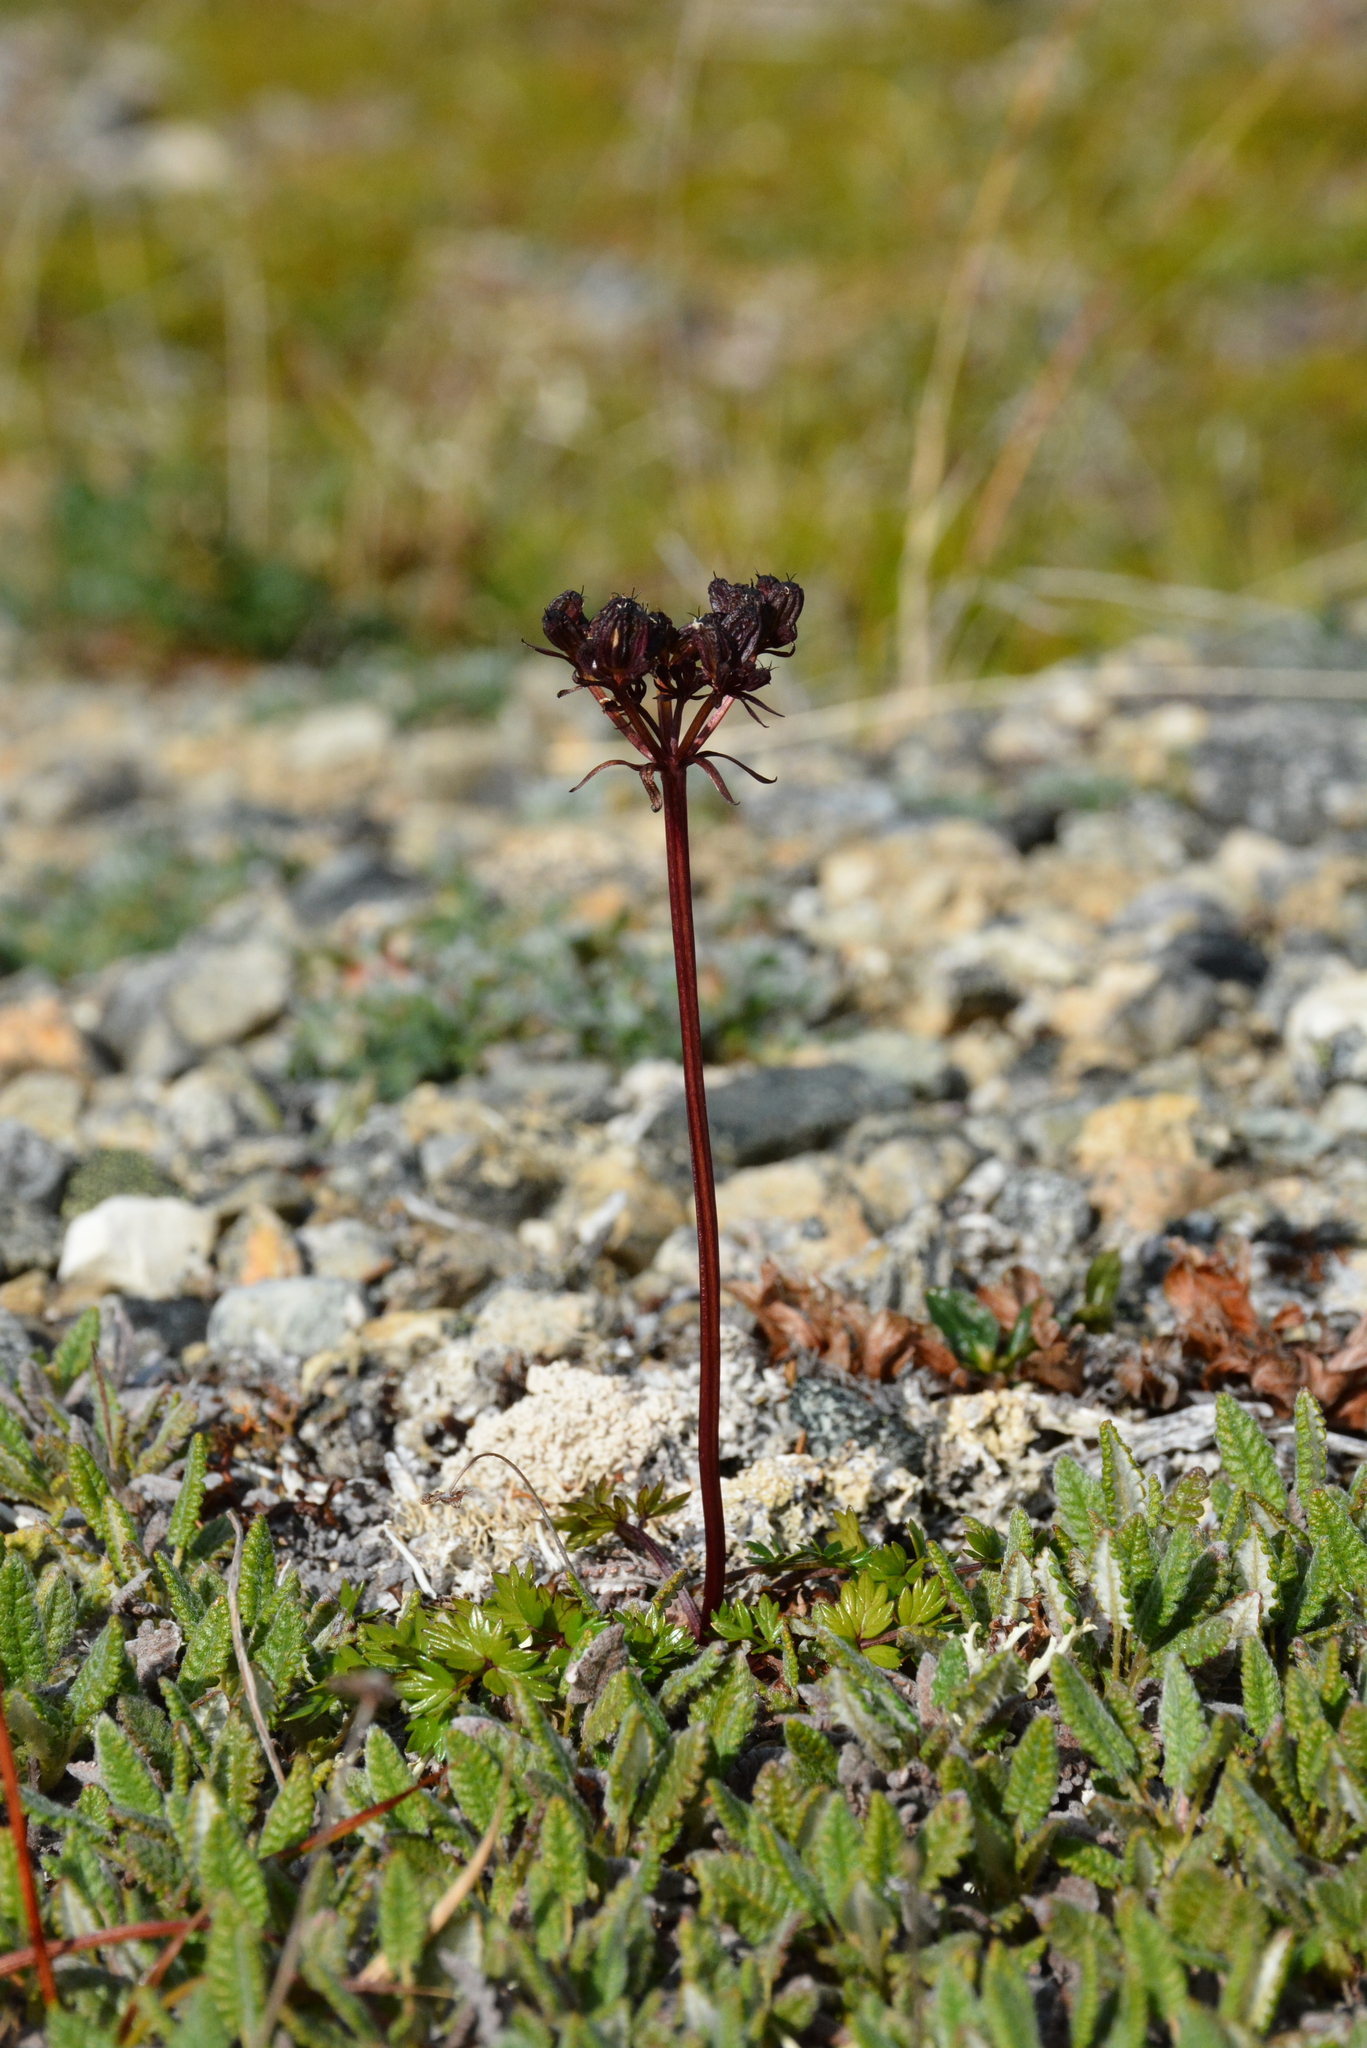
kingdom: Plantae
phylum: Tracheophyta
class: Magnoliopsida
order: Apiales
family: Apiaceae
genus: Orumbella
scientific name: Orumbella macounii
